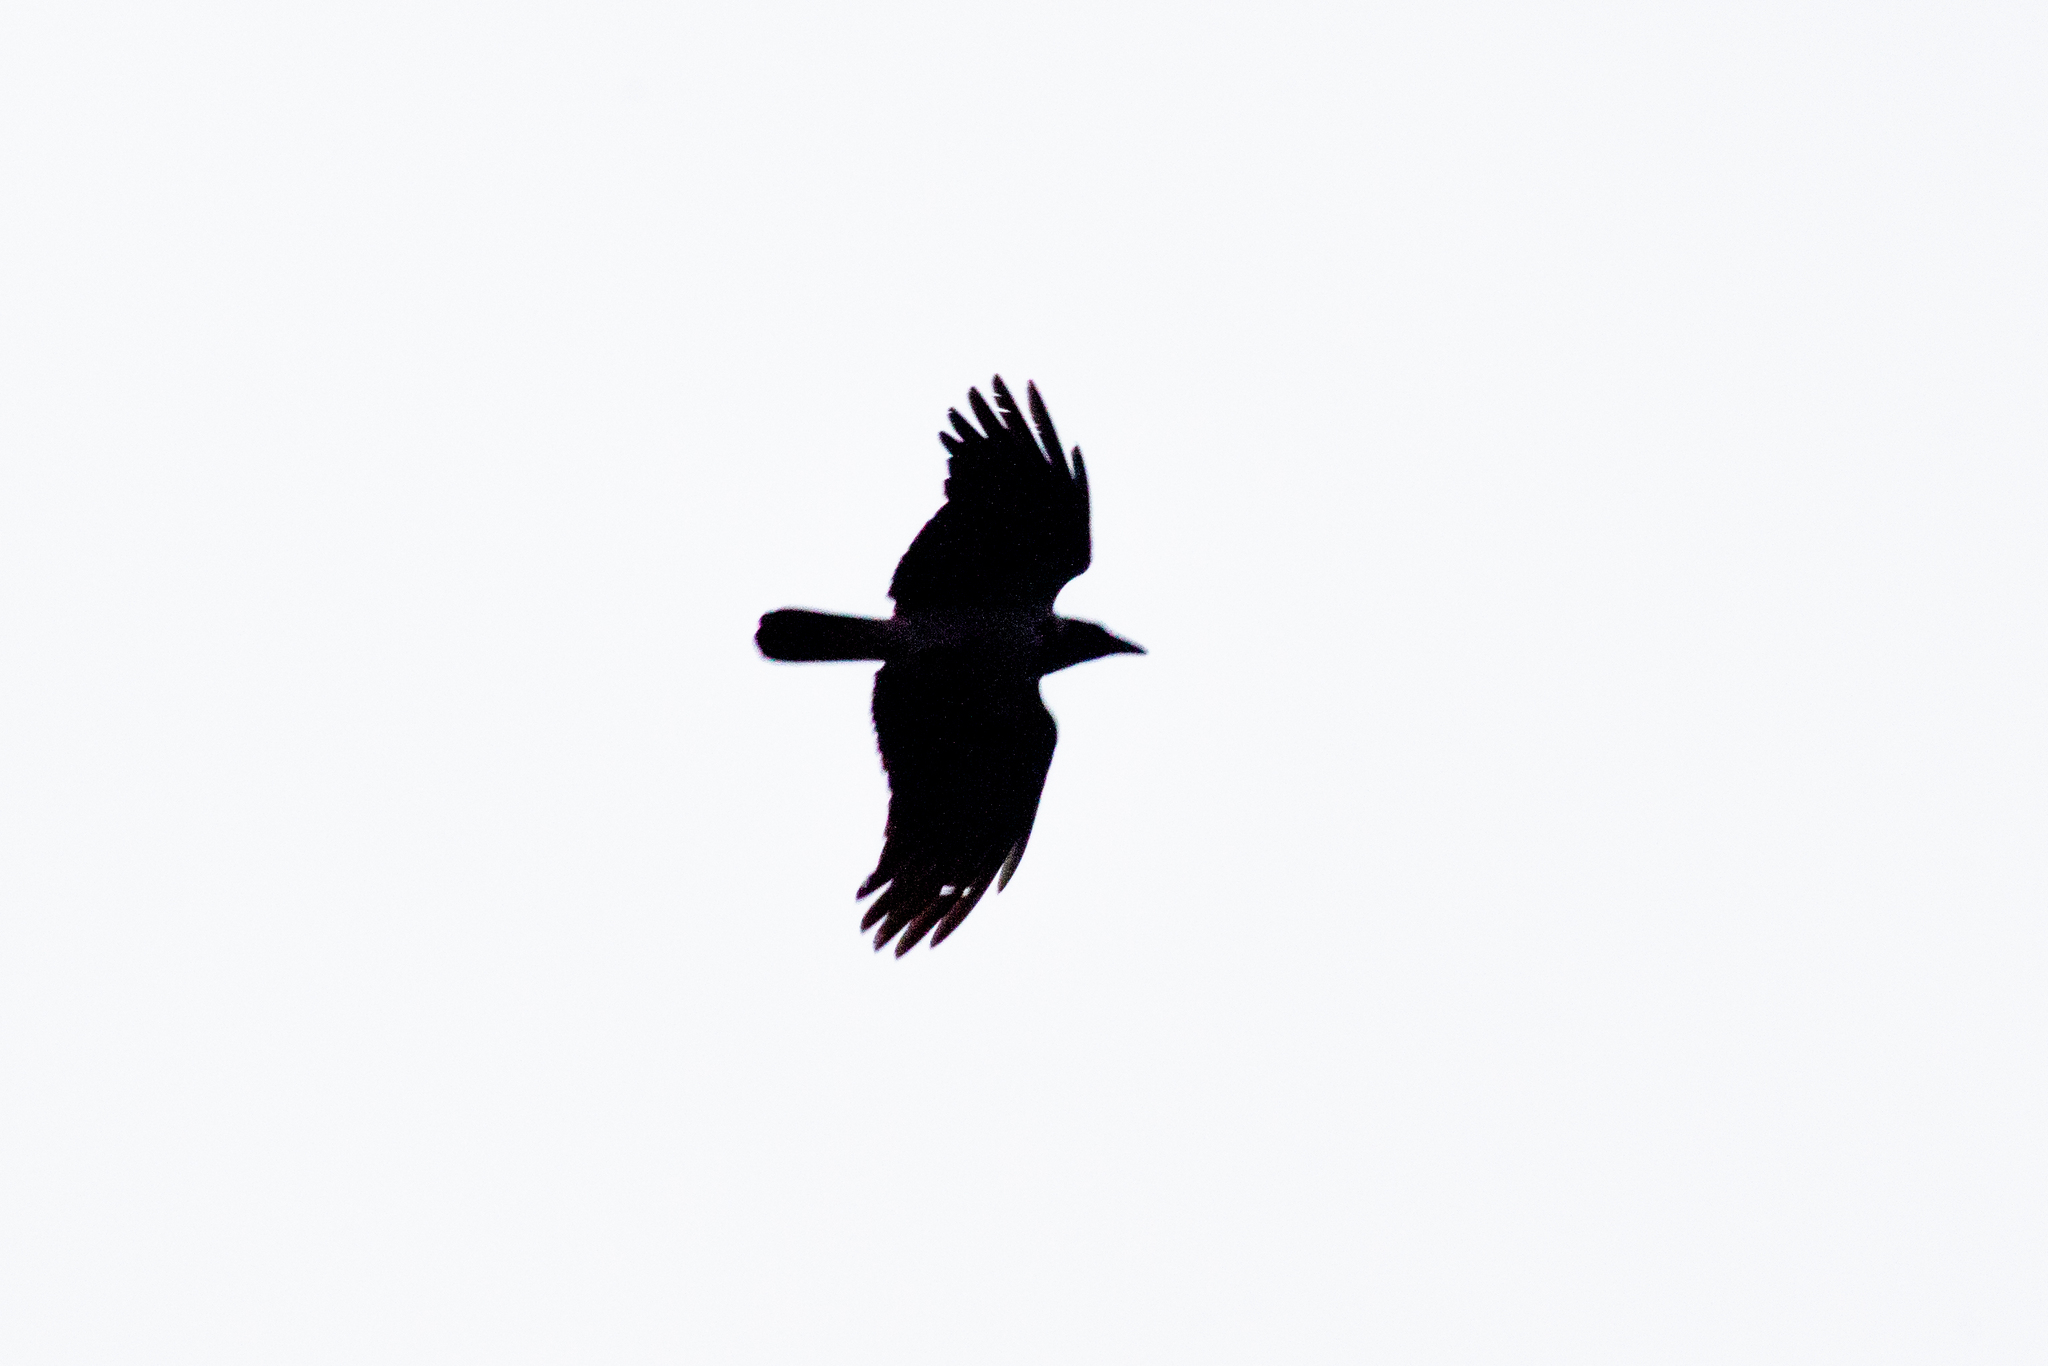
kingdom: Animalia
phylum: Chordata
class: Aves
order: Passeriformes
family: Corvidae
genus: Corvus
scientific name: Corvus cornix
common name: Hooded crow
